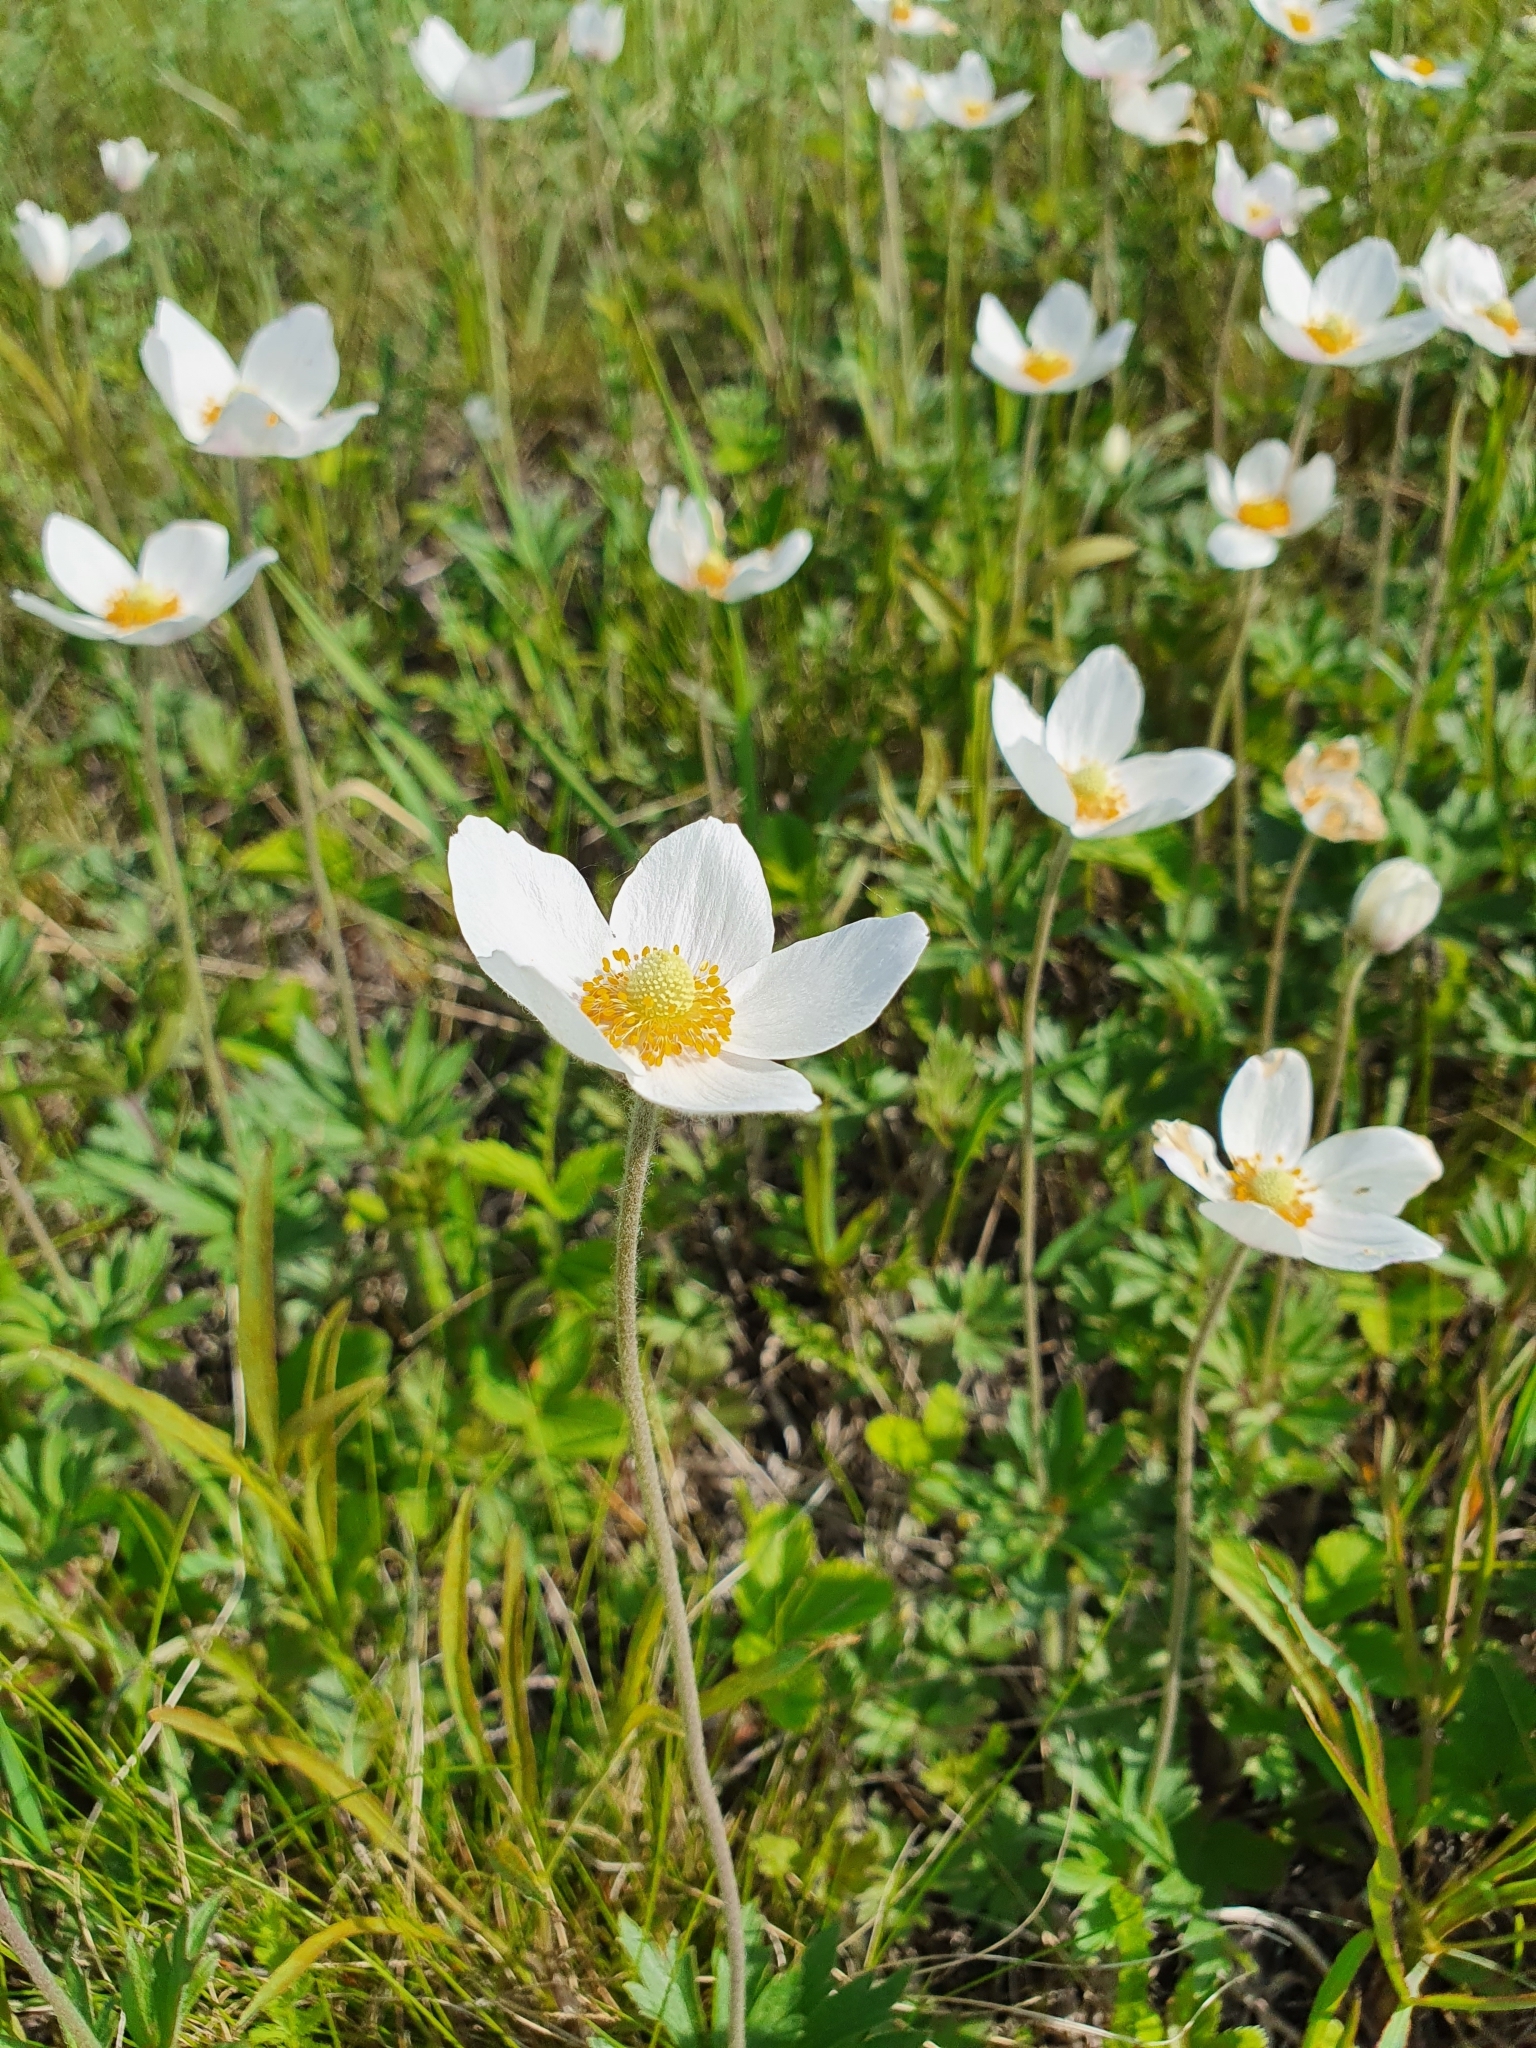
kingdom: Plantae
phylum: Tracheophyta
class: Magnoliopsida
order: Ranunculales
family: Ranunculaceae
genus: Anemone
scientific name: Anemone sylvestris
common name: Snowdrop anemone
